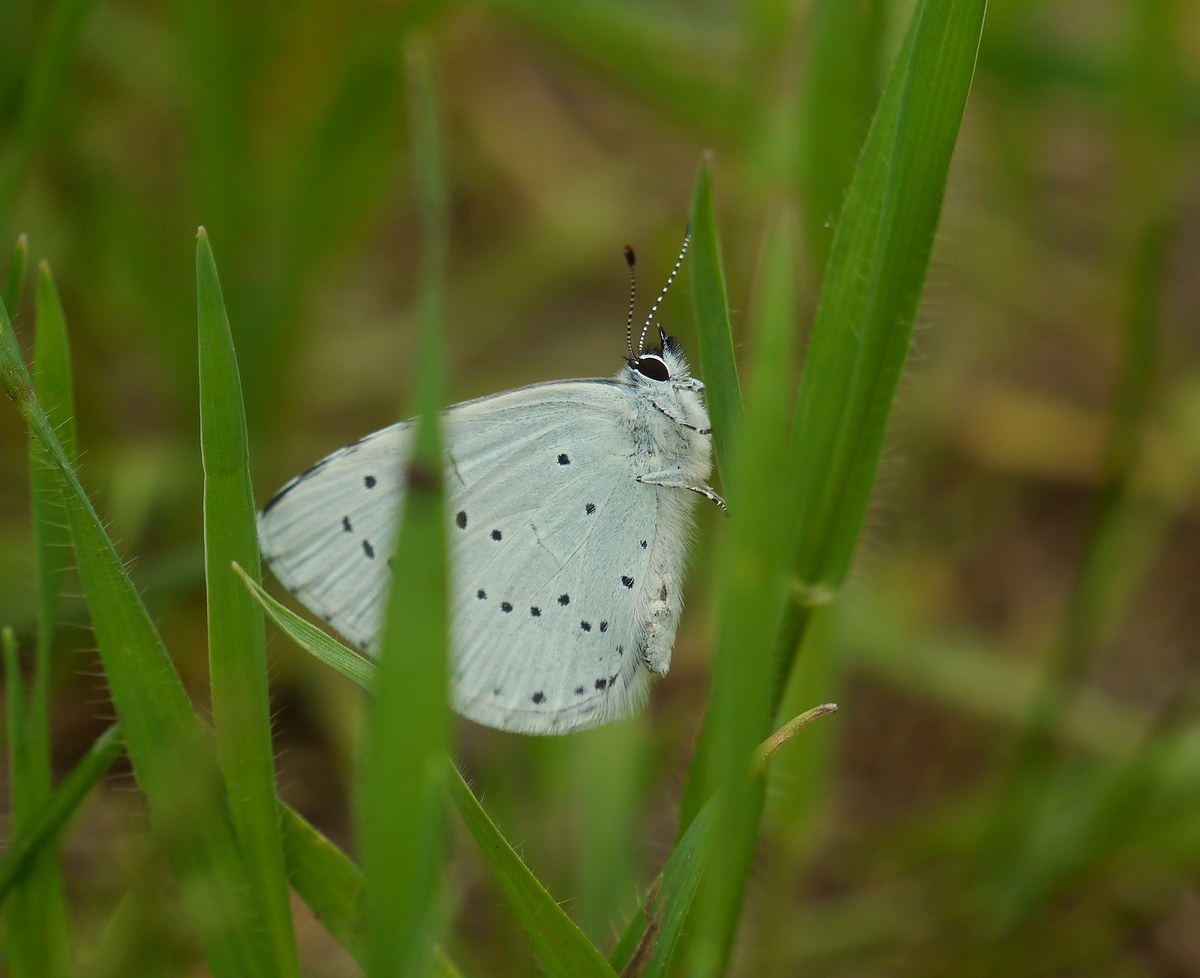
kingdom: Animalia
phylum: Arthropoda
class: Insecta
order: Lepidoptera
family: Lycaenidae
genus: Celastrina
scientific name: Celastrina argiolus
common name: Holly blue
